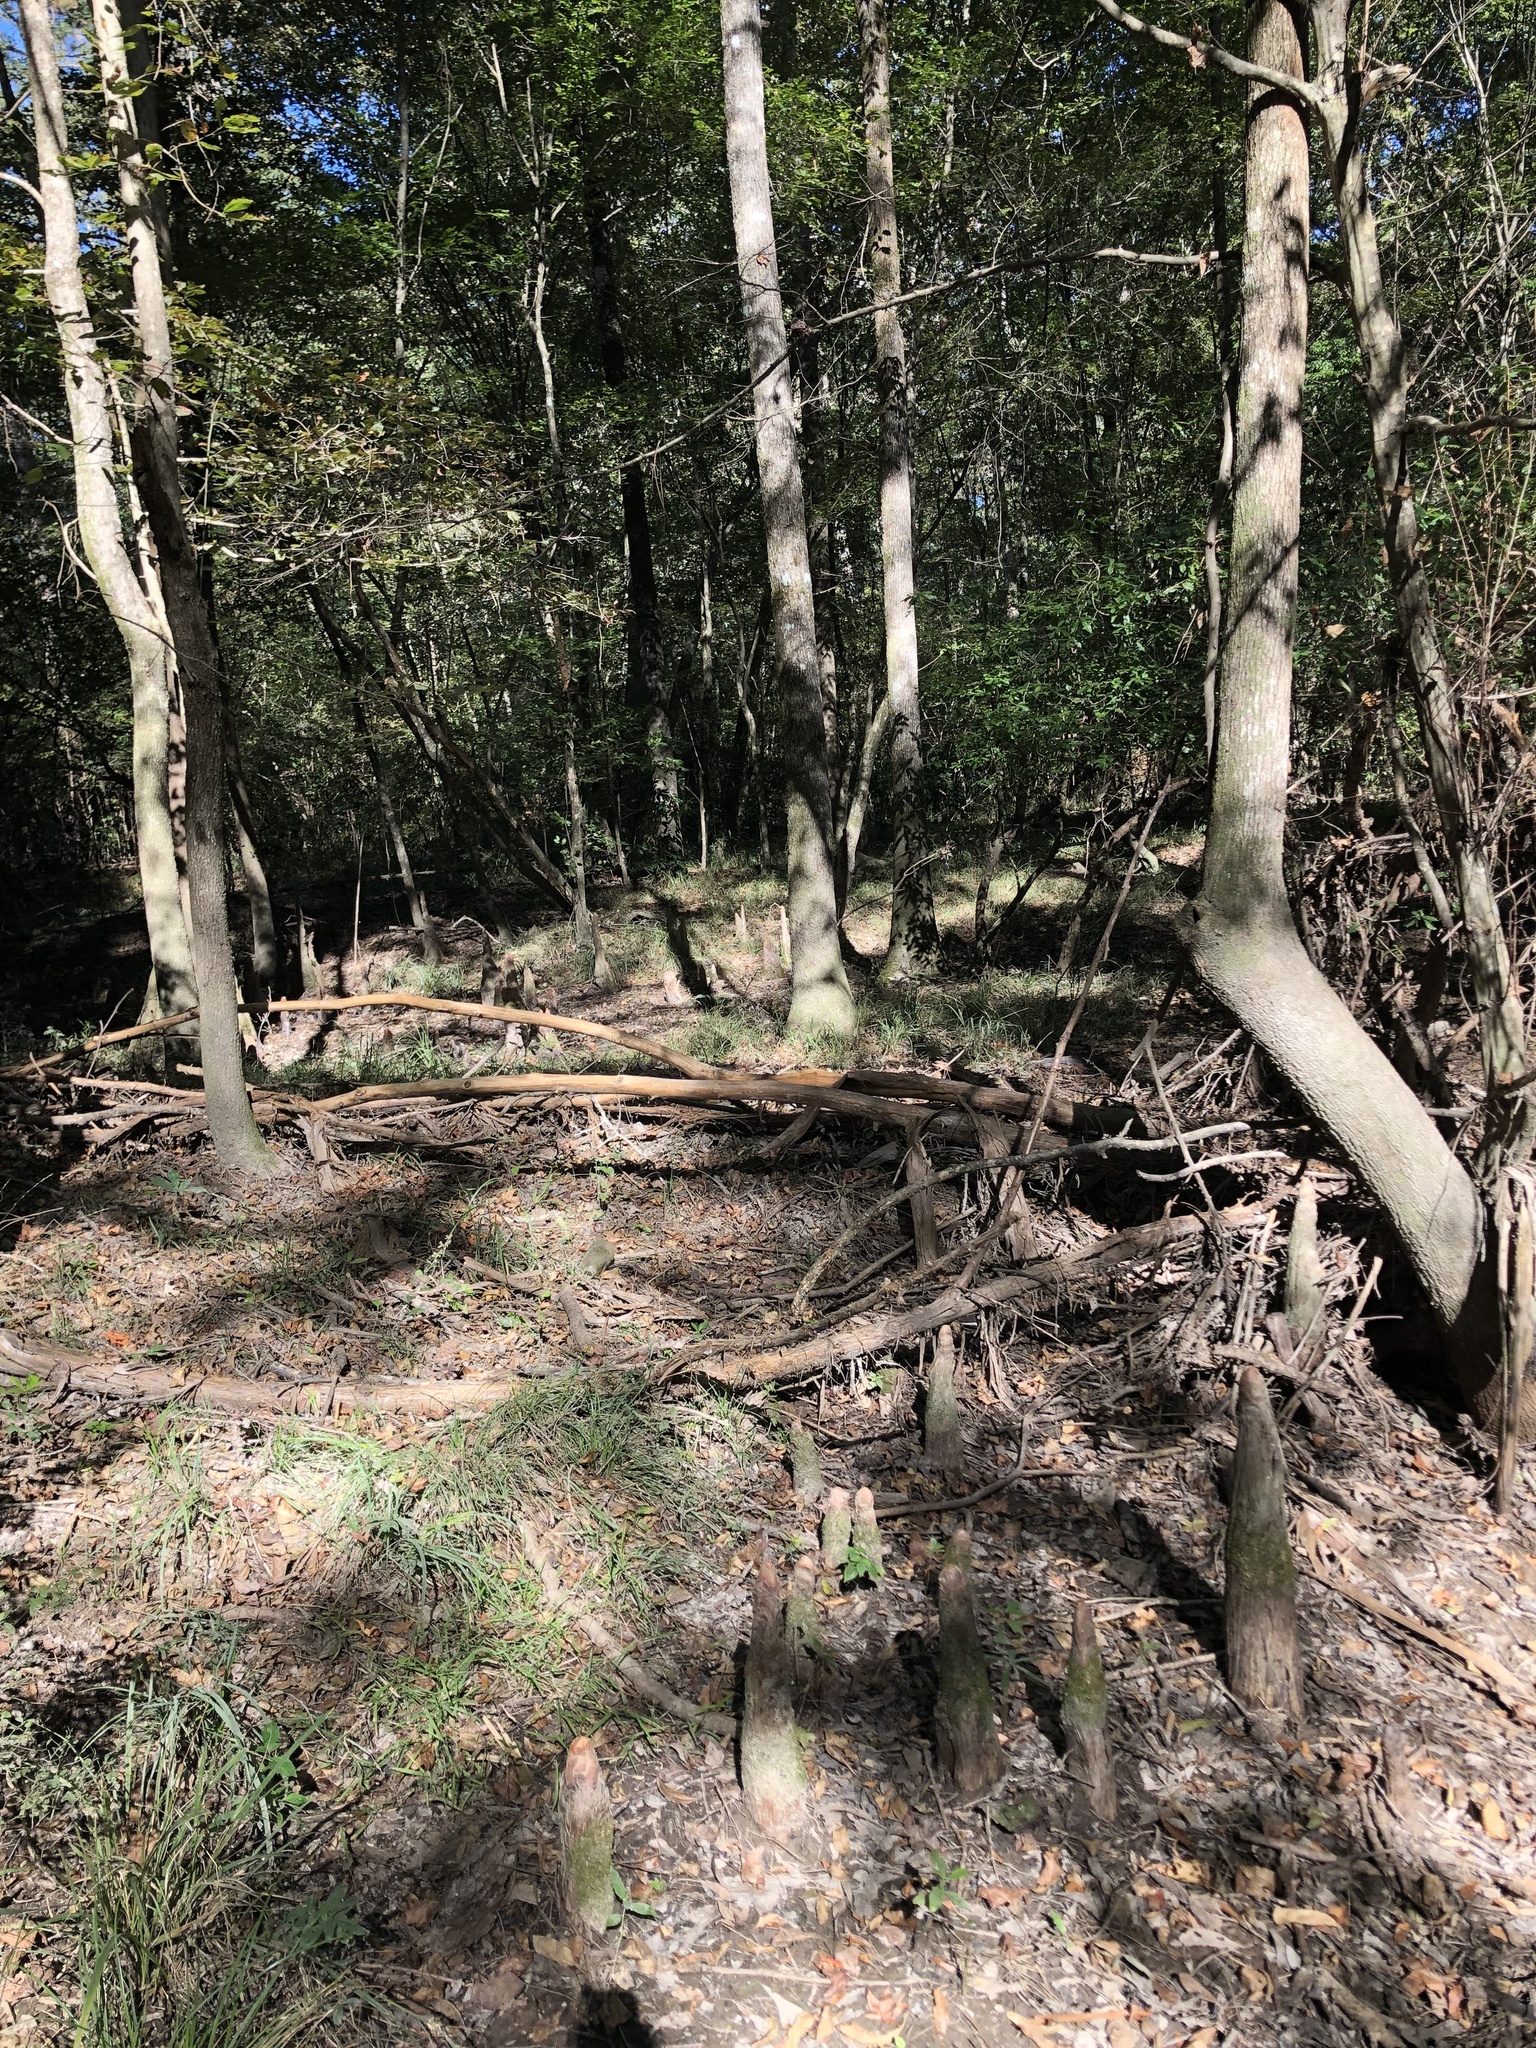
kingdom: Plantae
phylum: Tracheophyta
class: Liliopsida
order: Poales
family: Poaceae
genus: Leersia
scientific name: Leersia virginica
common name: White cutgrass
